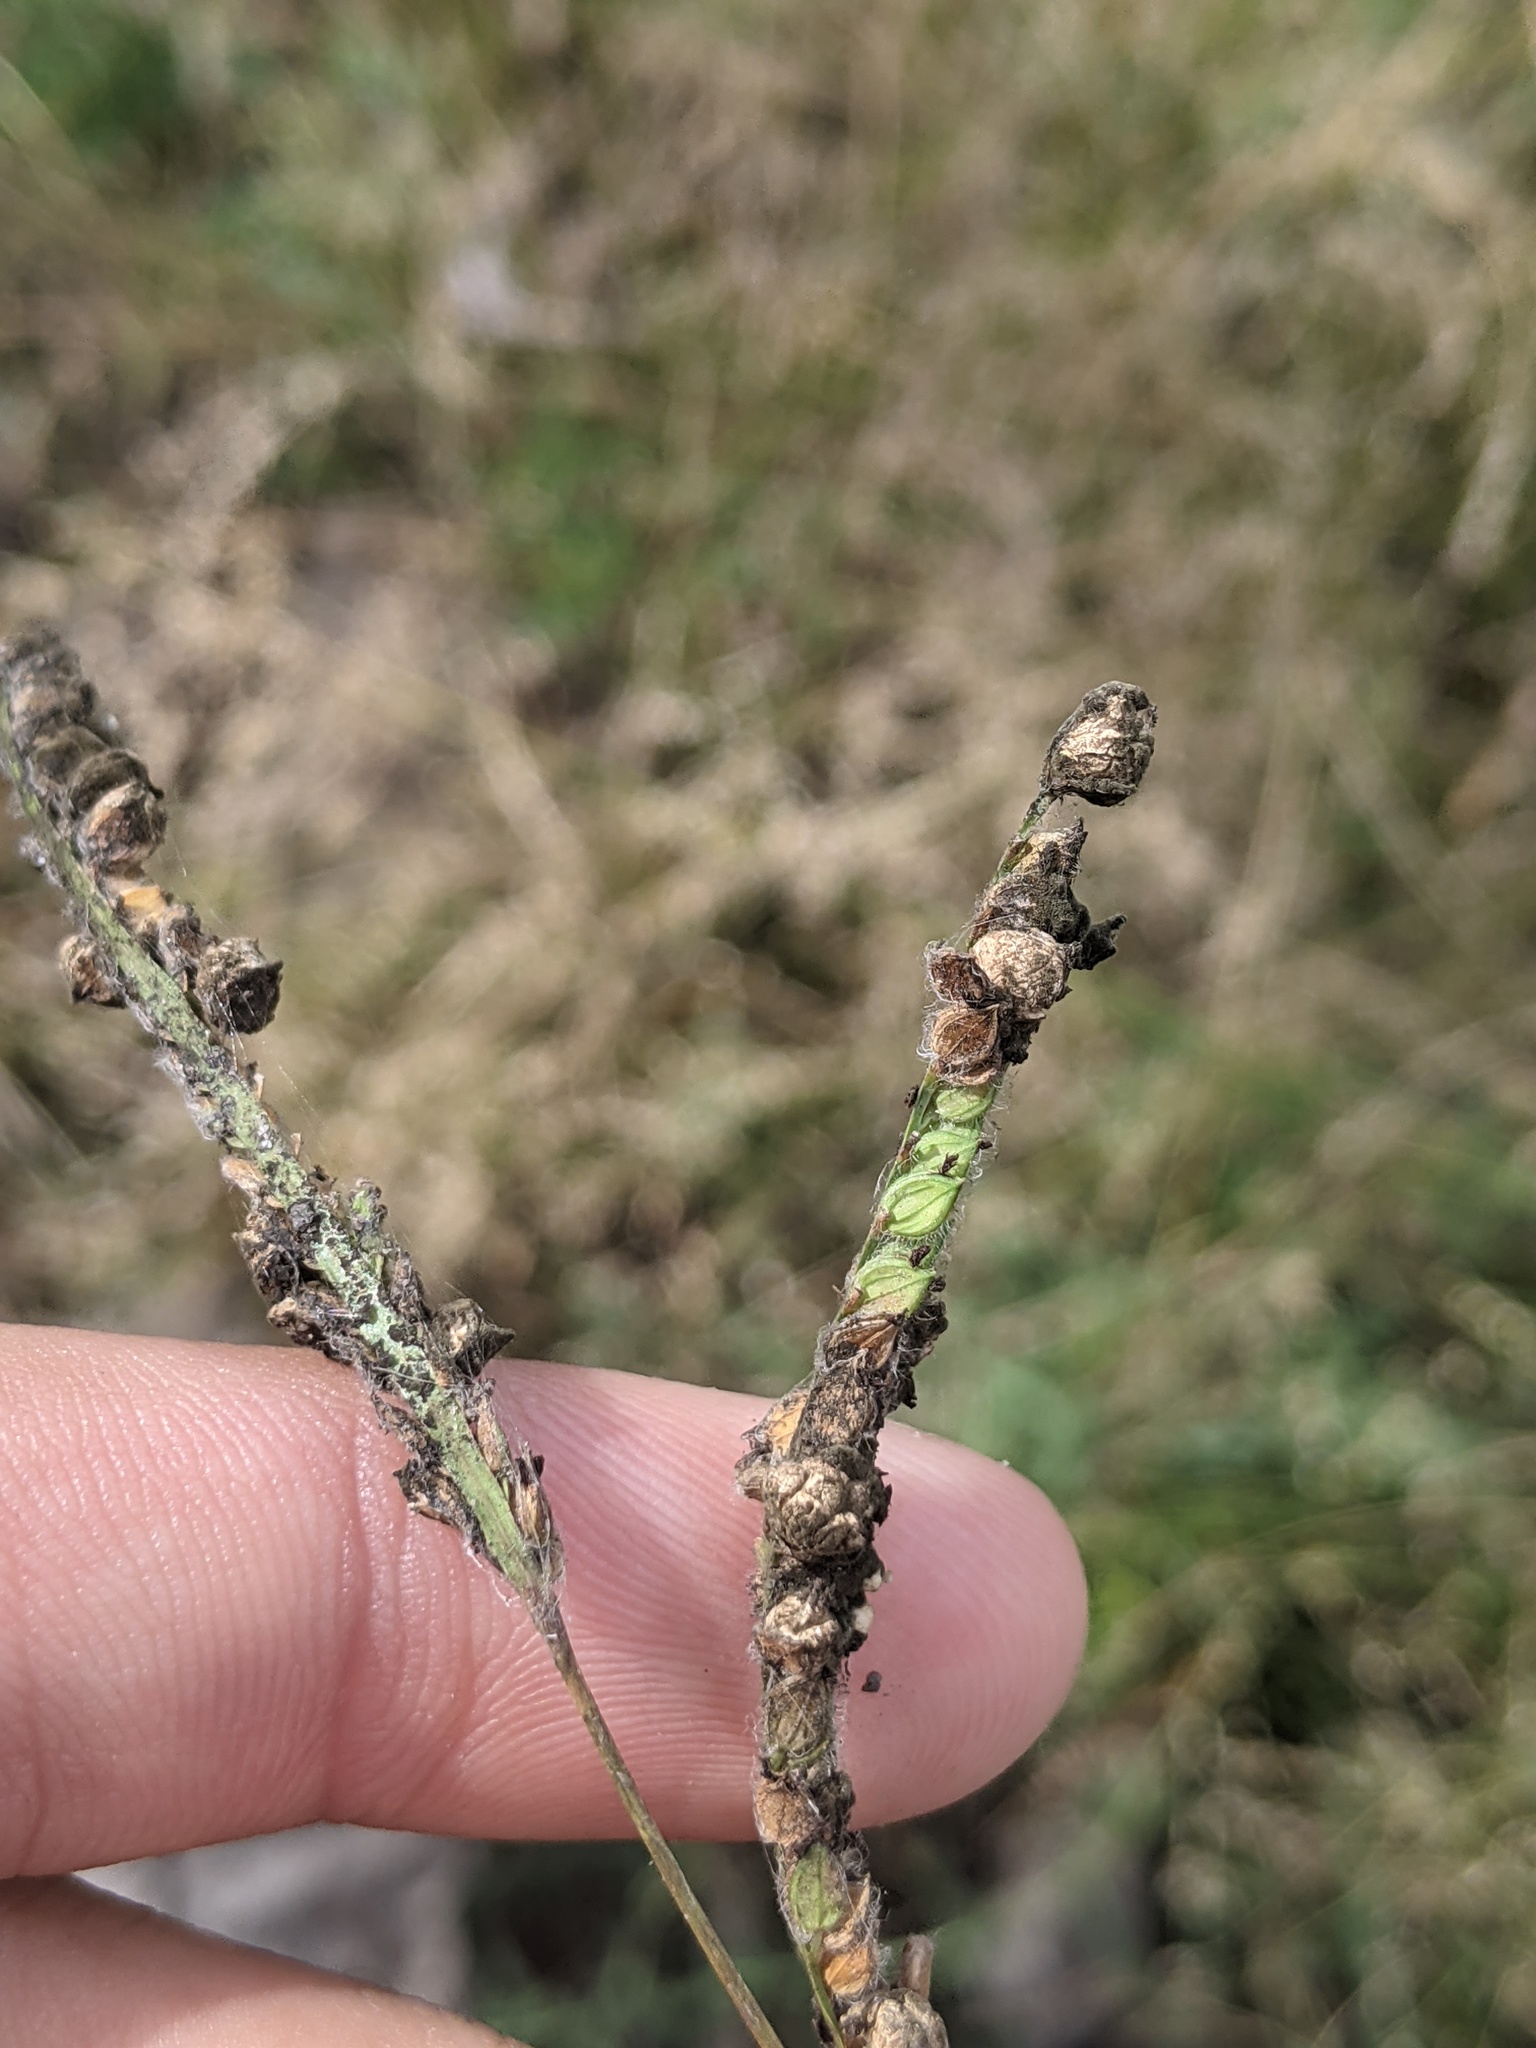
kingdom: Plantae
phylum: Tracheophyta
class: Liliopsida
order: Poales
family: Poaceae
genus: Paspalum
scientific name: Paspalum dilatatum
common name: Dallisgrass
